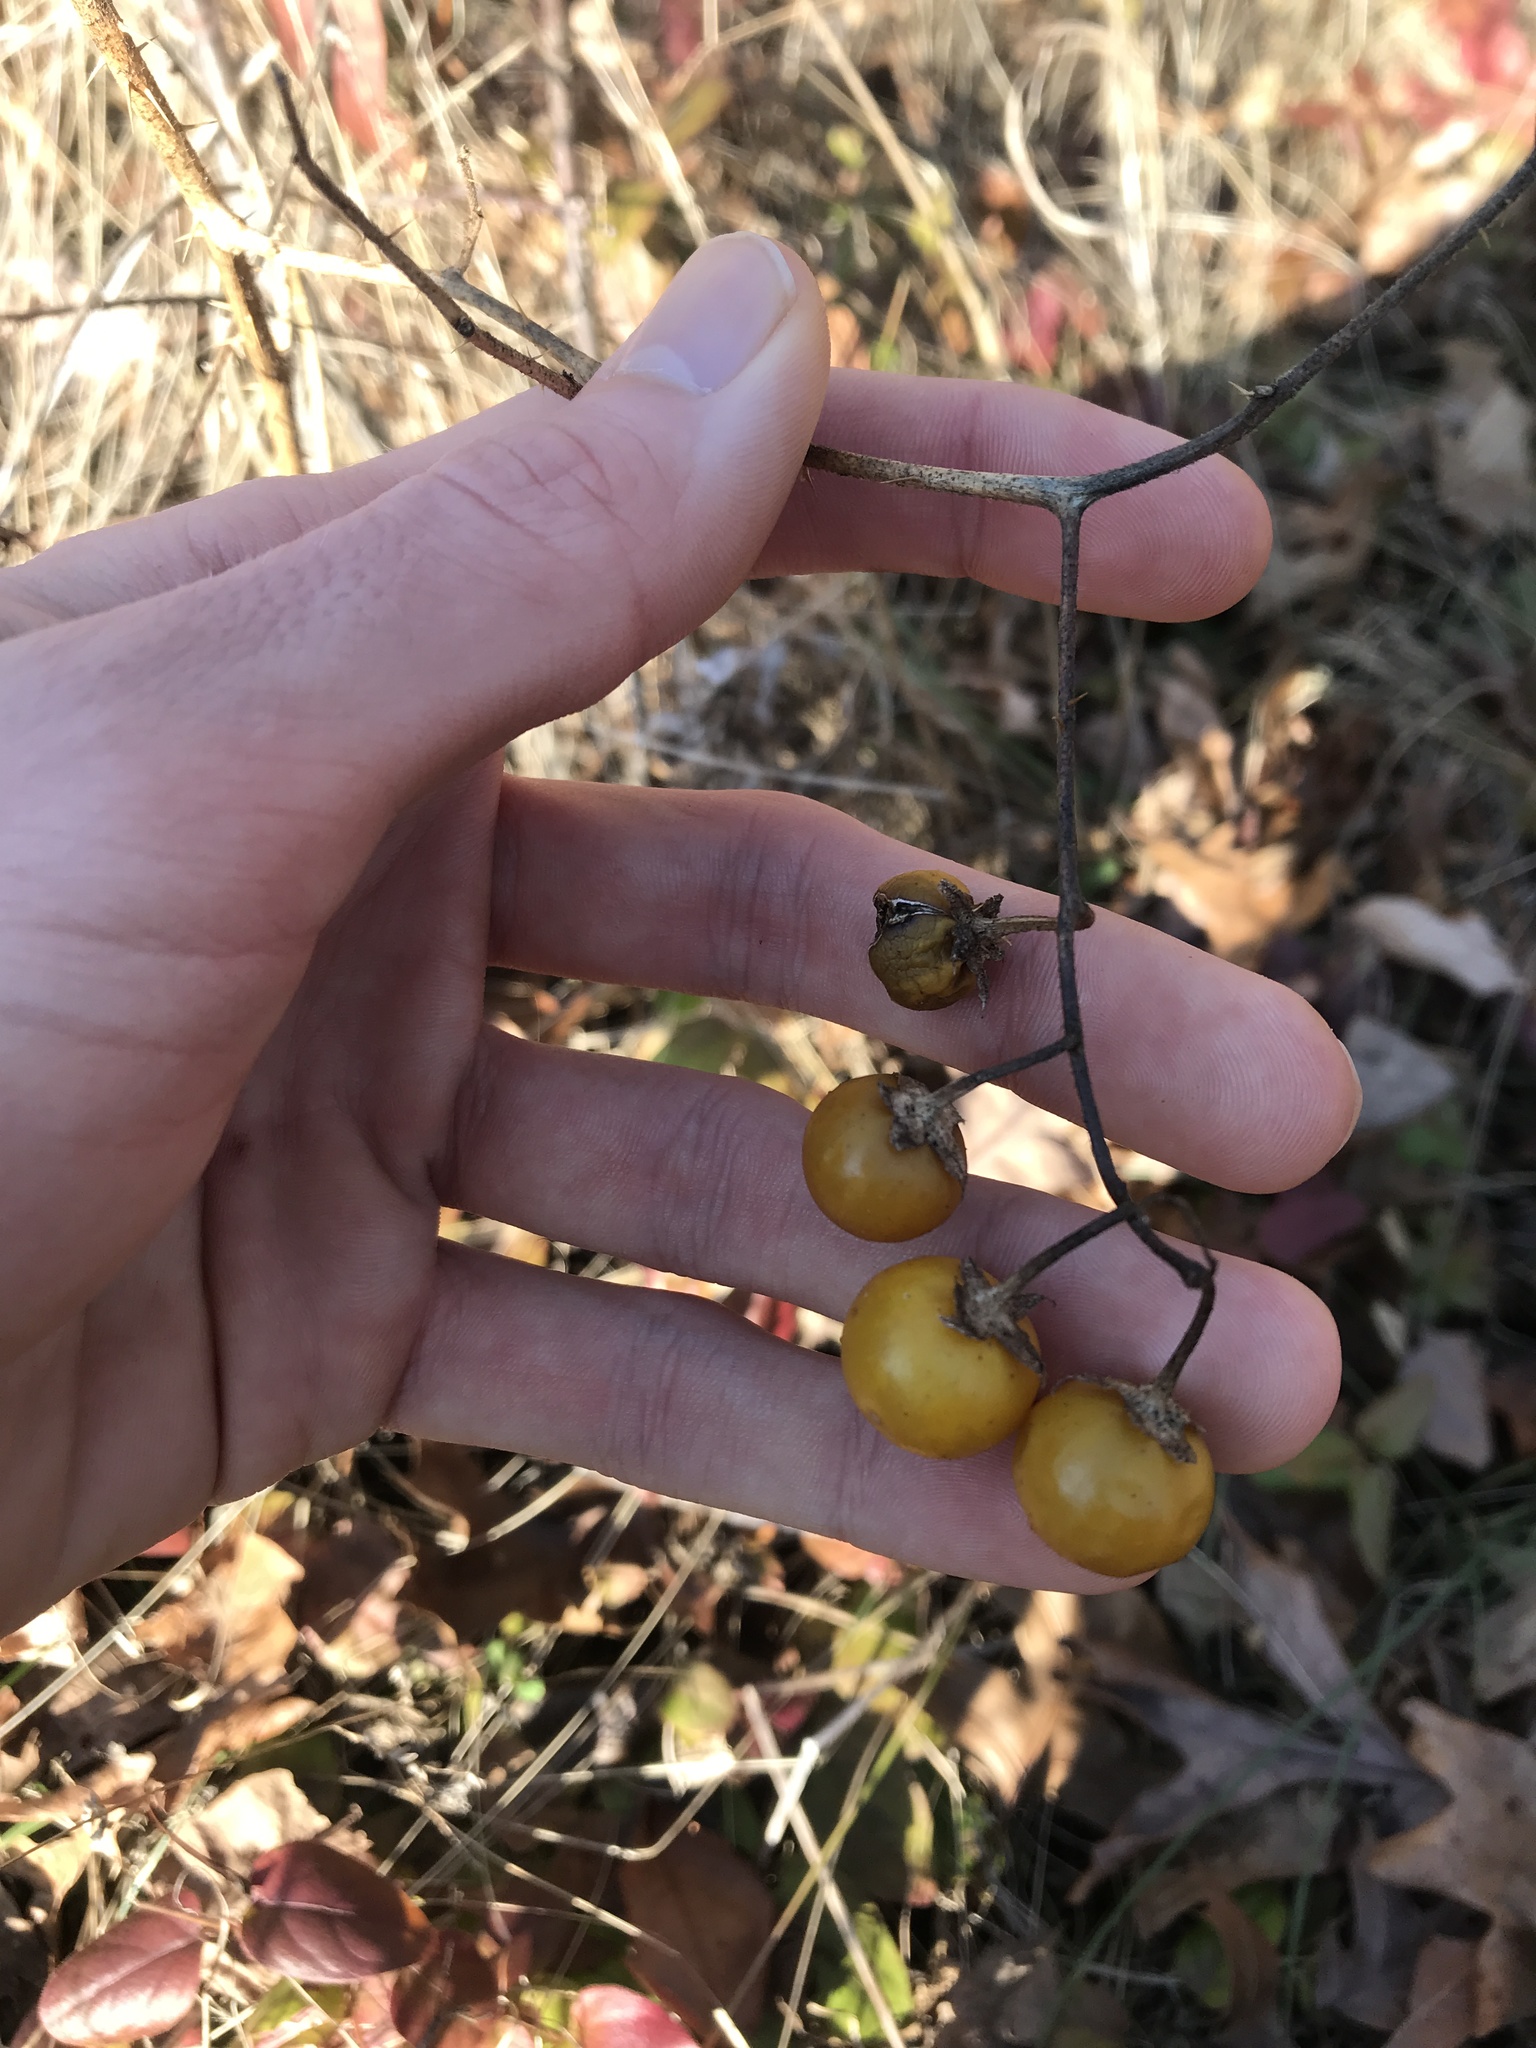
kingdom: Plantae
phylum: Tracheophyta
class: Magnoliopsida
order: Solanales
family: Solanaceae
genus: Solanum
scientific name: Solanum carolinense
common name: Horse-nettle
